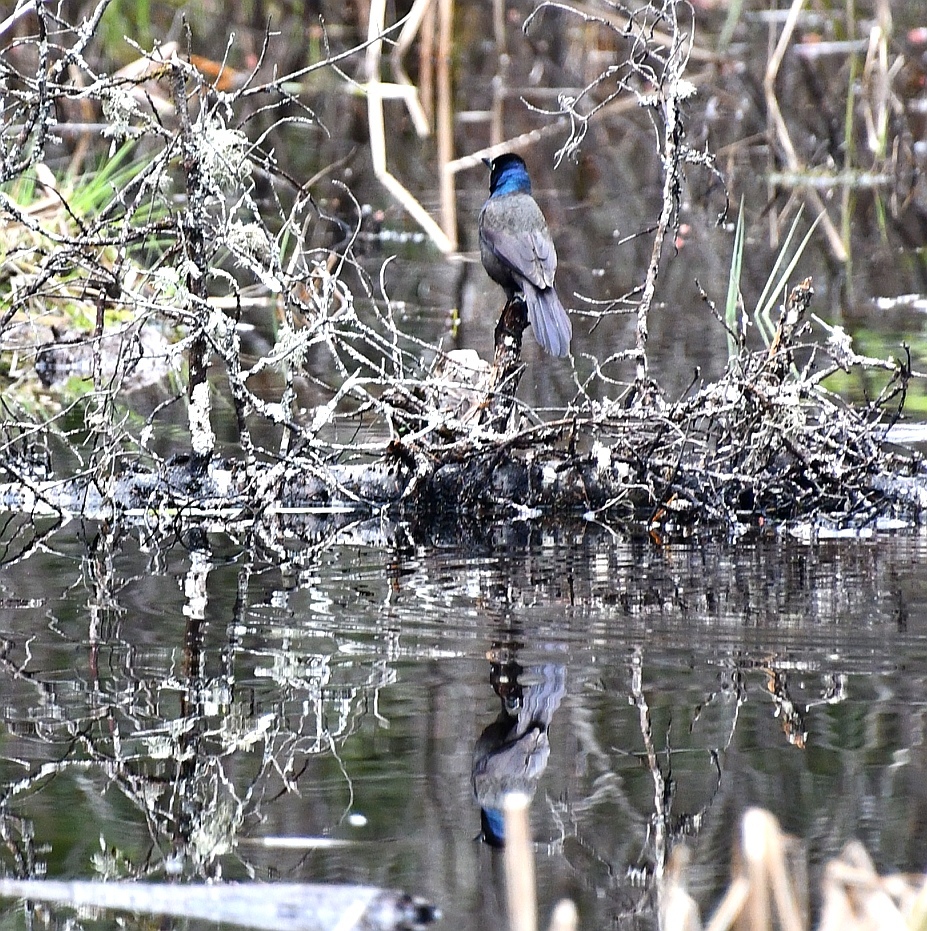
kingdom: Animalia
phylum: Chordata
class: Aves
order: Passeriformes
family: Icteridae
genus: Quiscalus
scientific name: Quiscalus quiscula
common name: Common grackle
